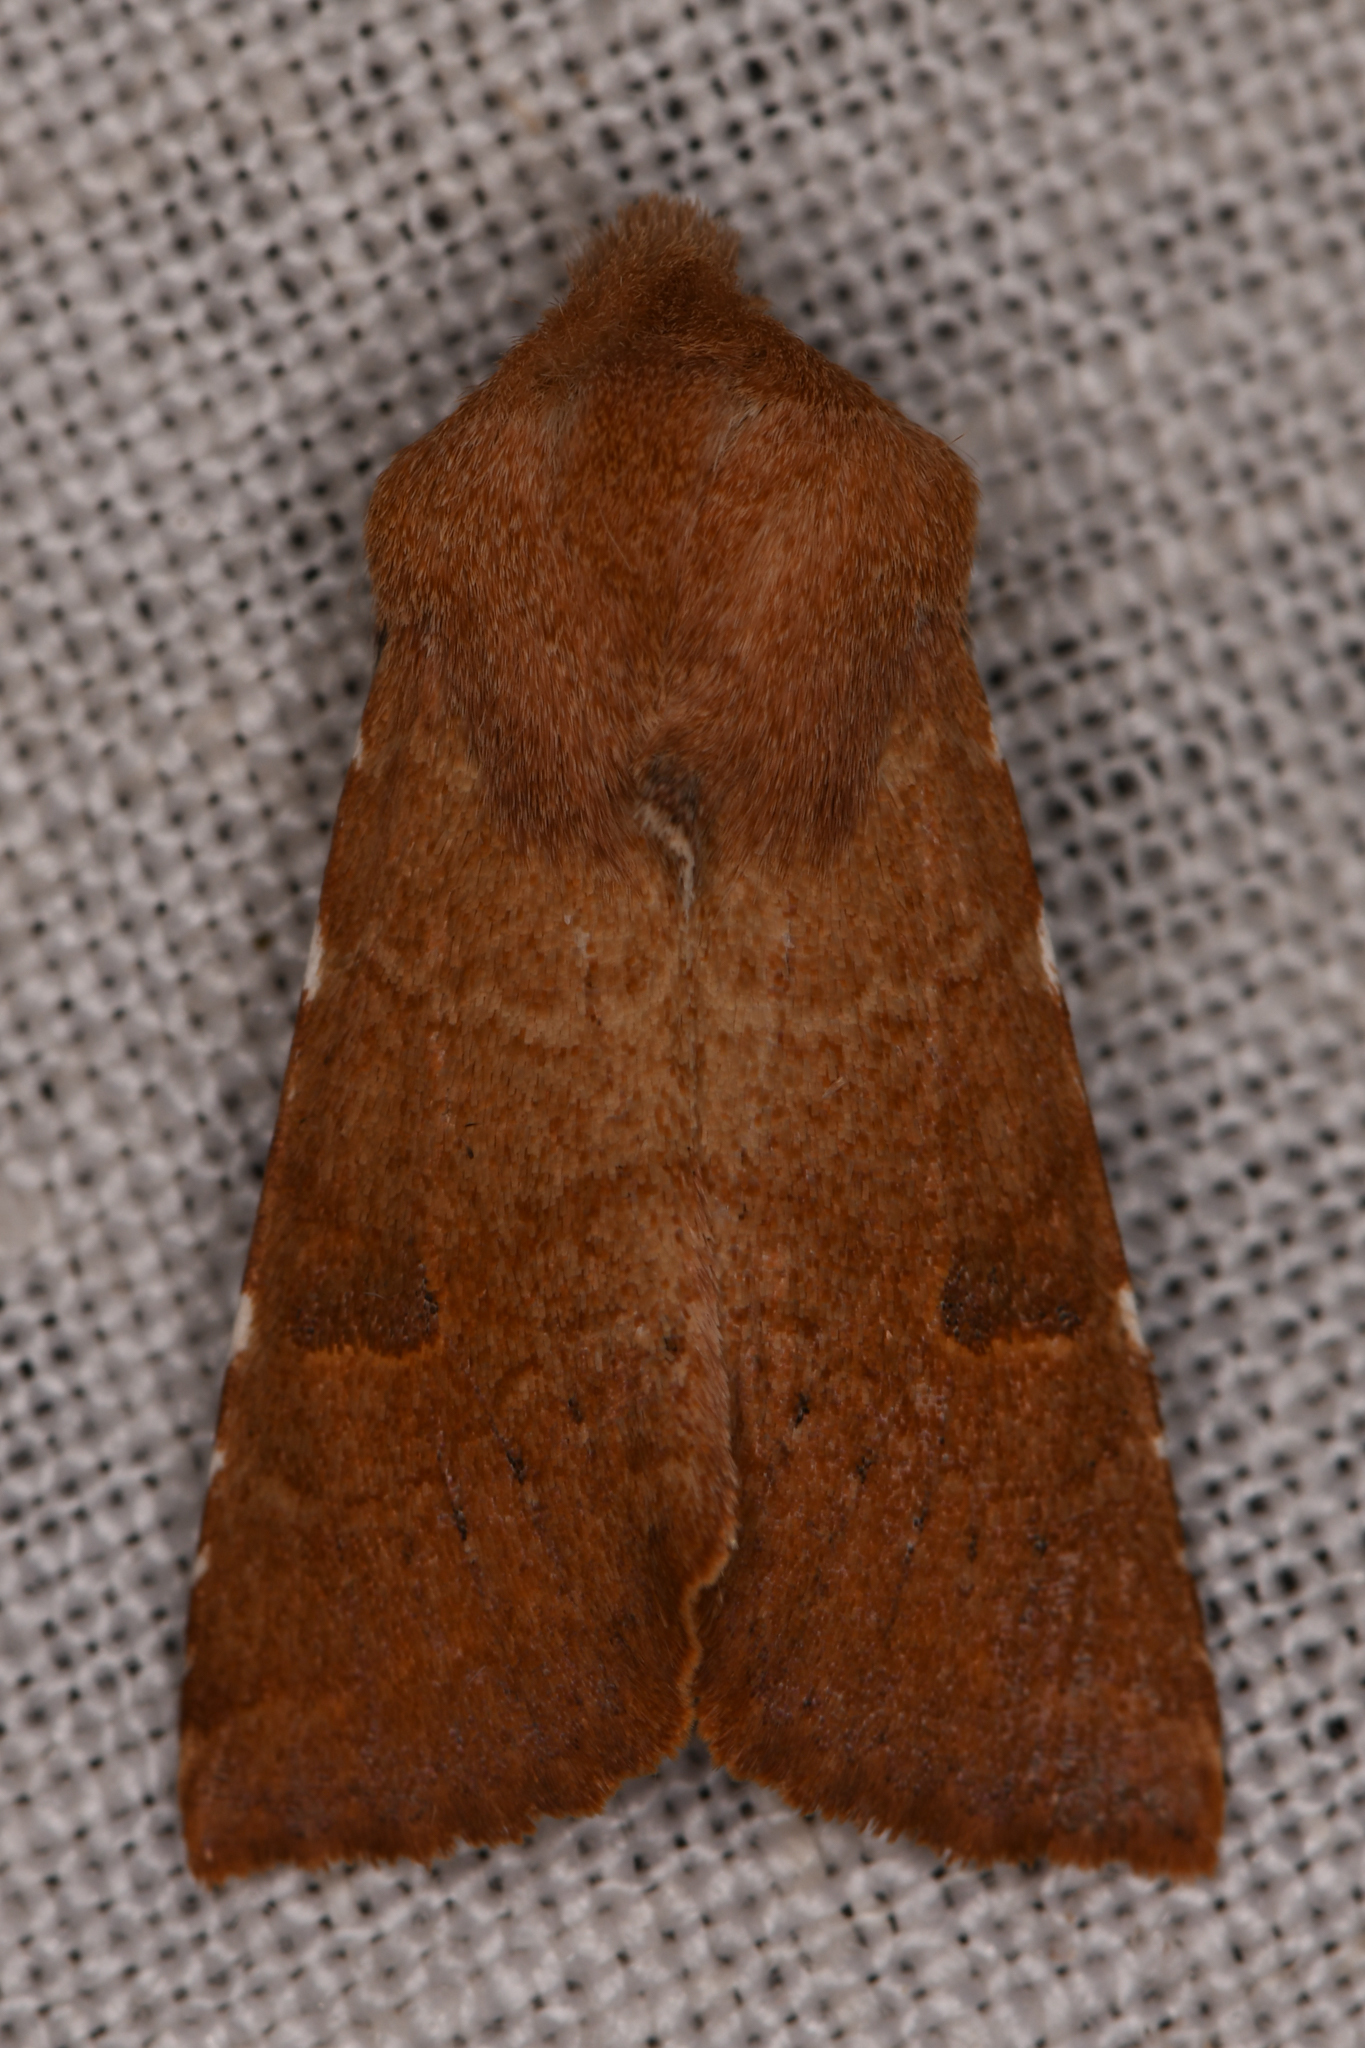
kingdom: Animalia
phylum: Arthropoda
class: Insecta
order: Lepidoptera
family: Noctuidae
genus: Orthosia
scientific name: Orthosia ferrigera
